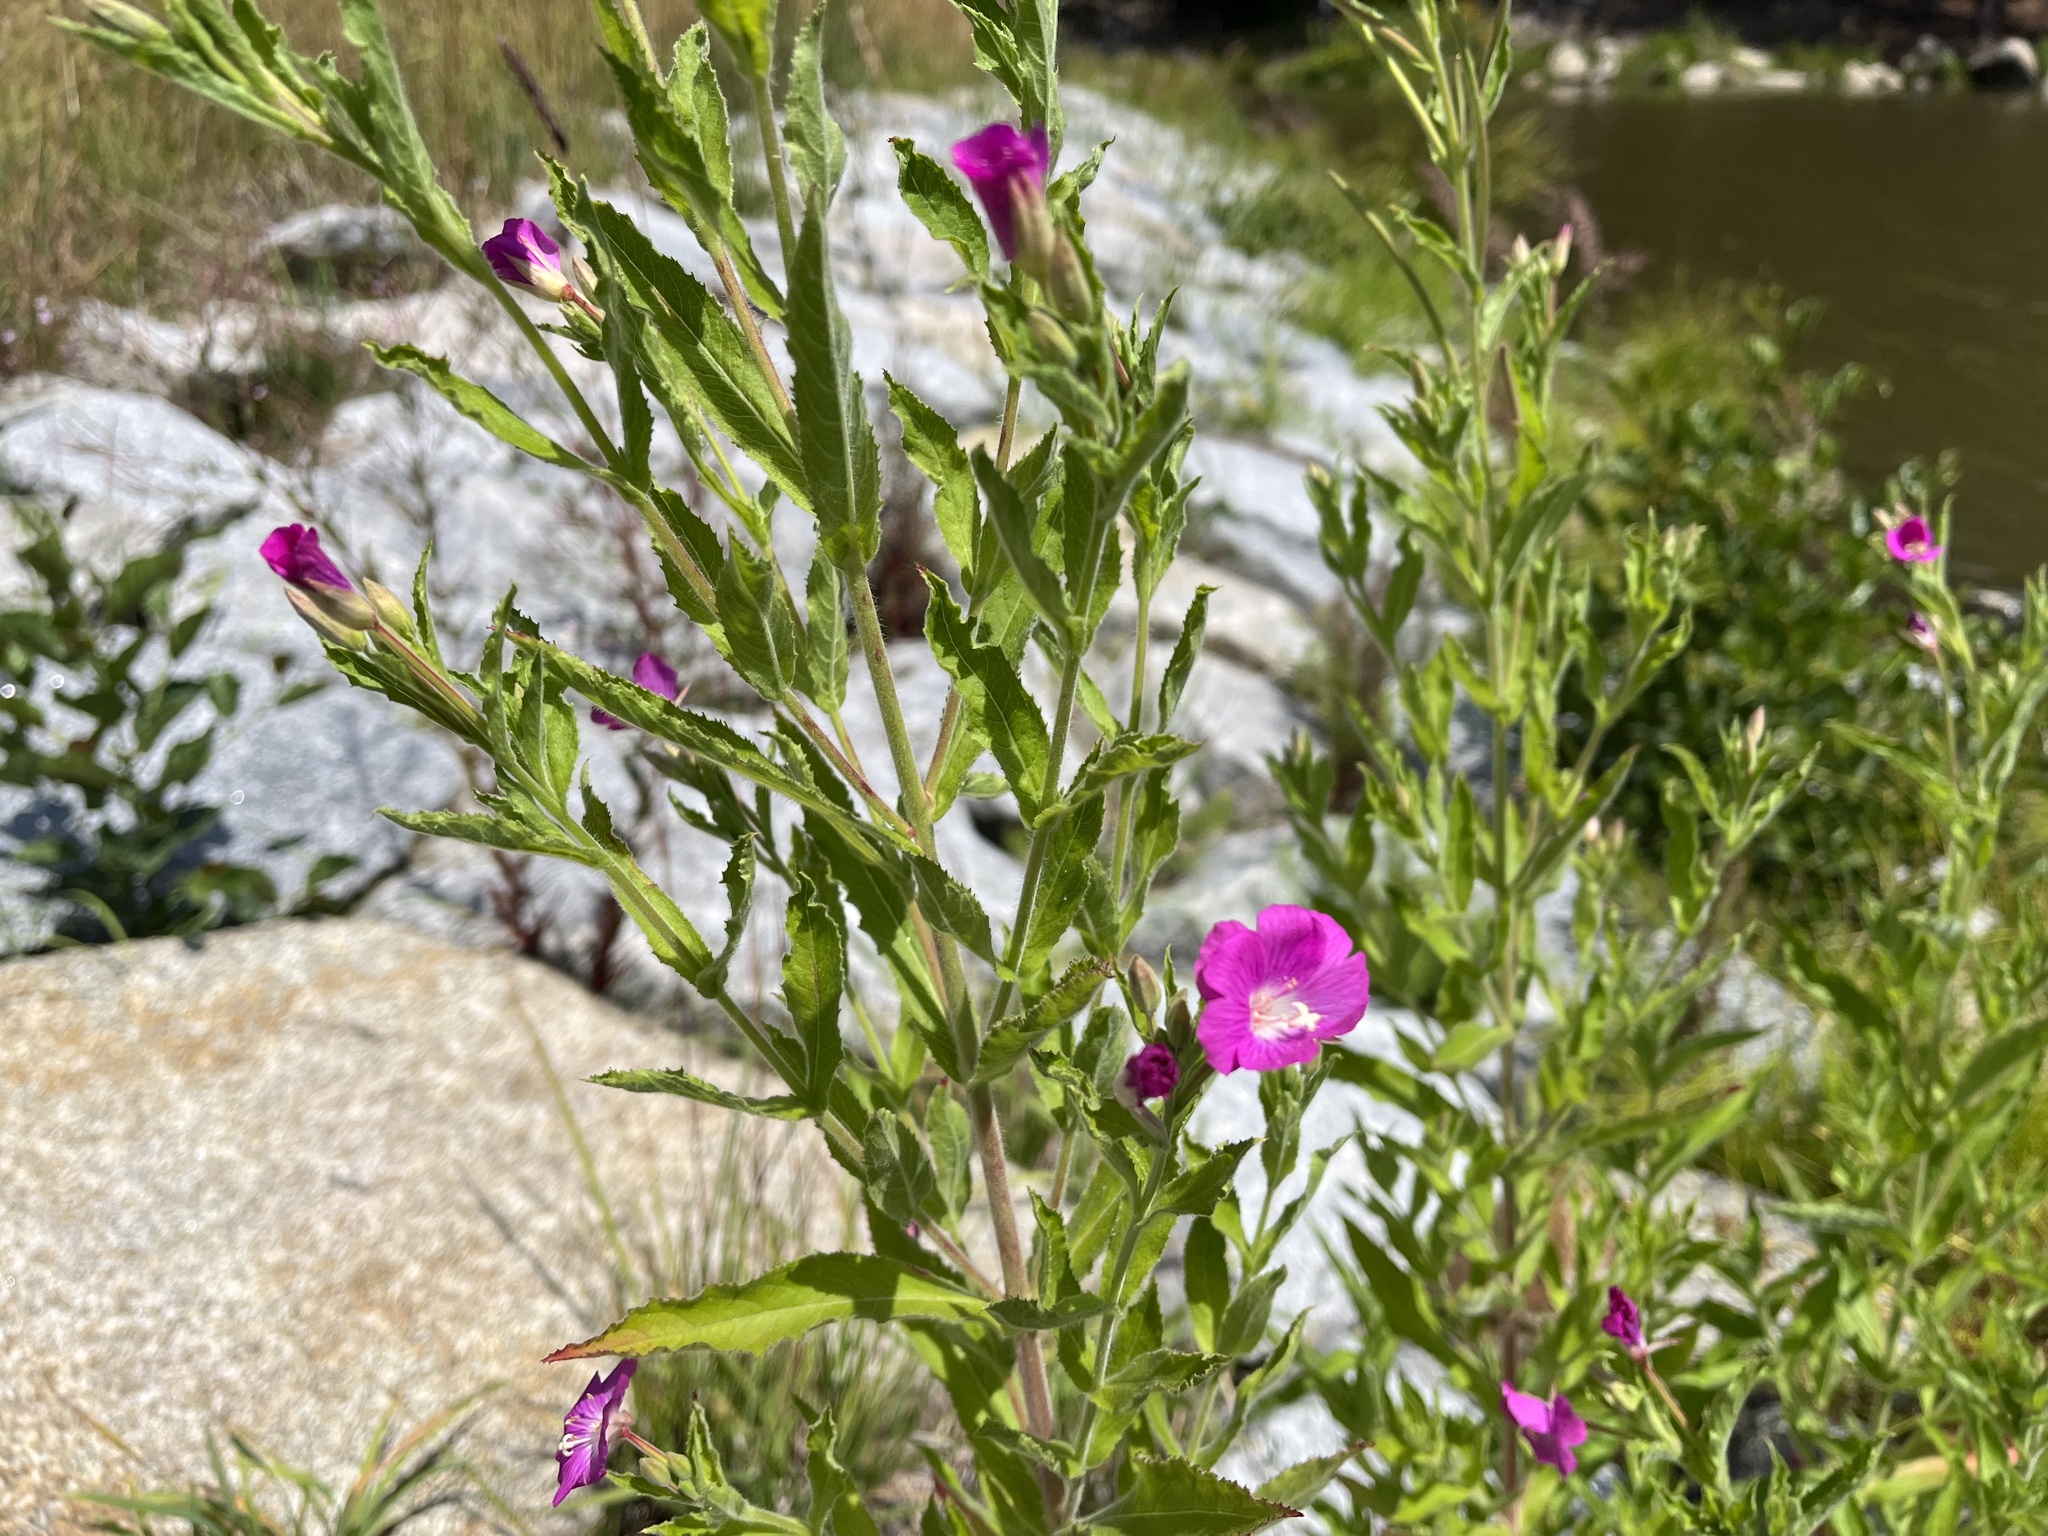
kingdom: Plantae
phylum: Tracheophyta
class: Magnoliopsida
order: Myrtales
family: Onagraceae
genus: Epilobium
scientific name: Epilobium hirsutum
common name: Great willowherb
